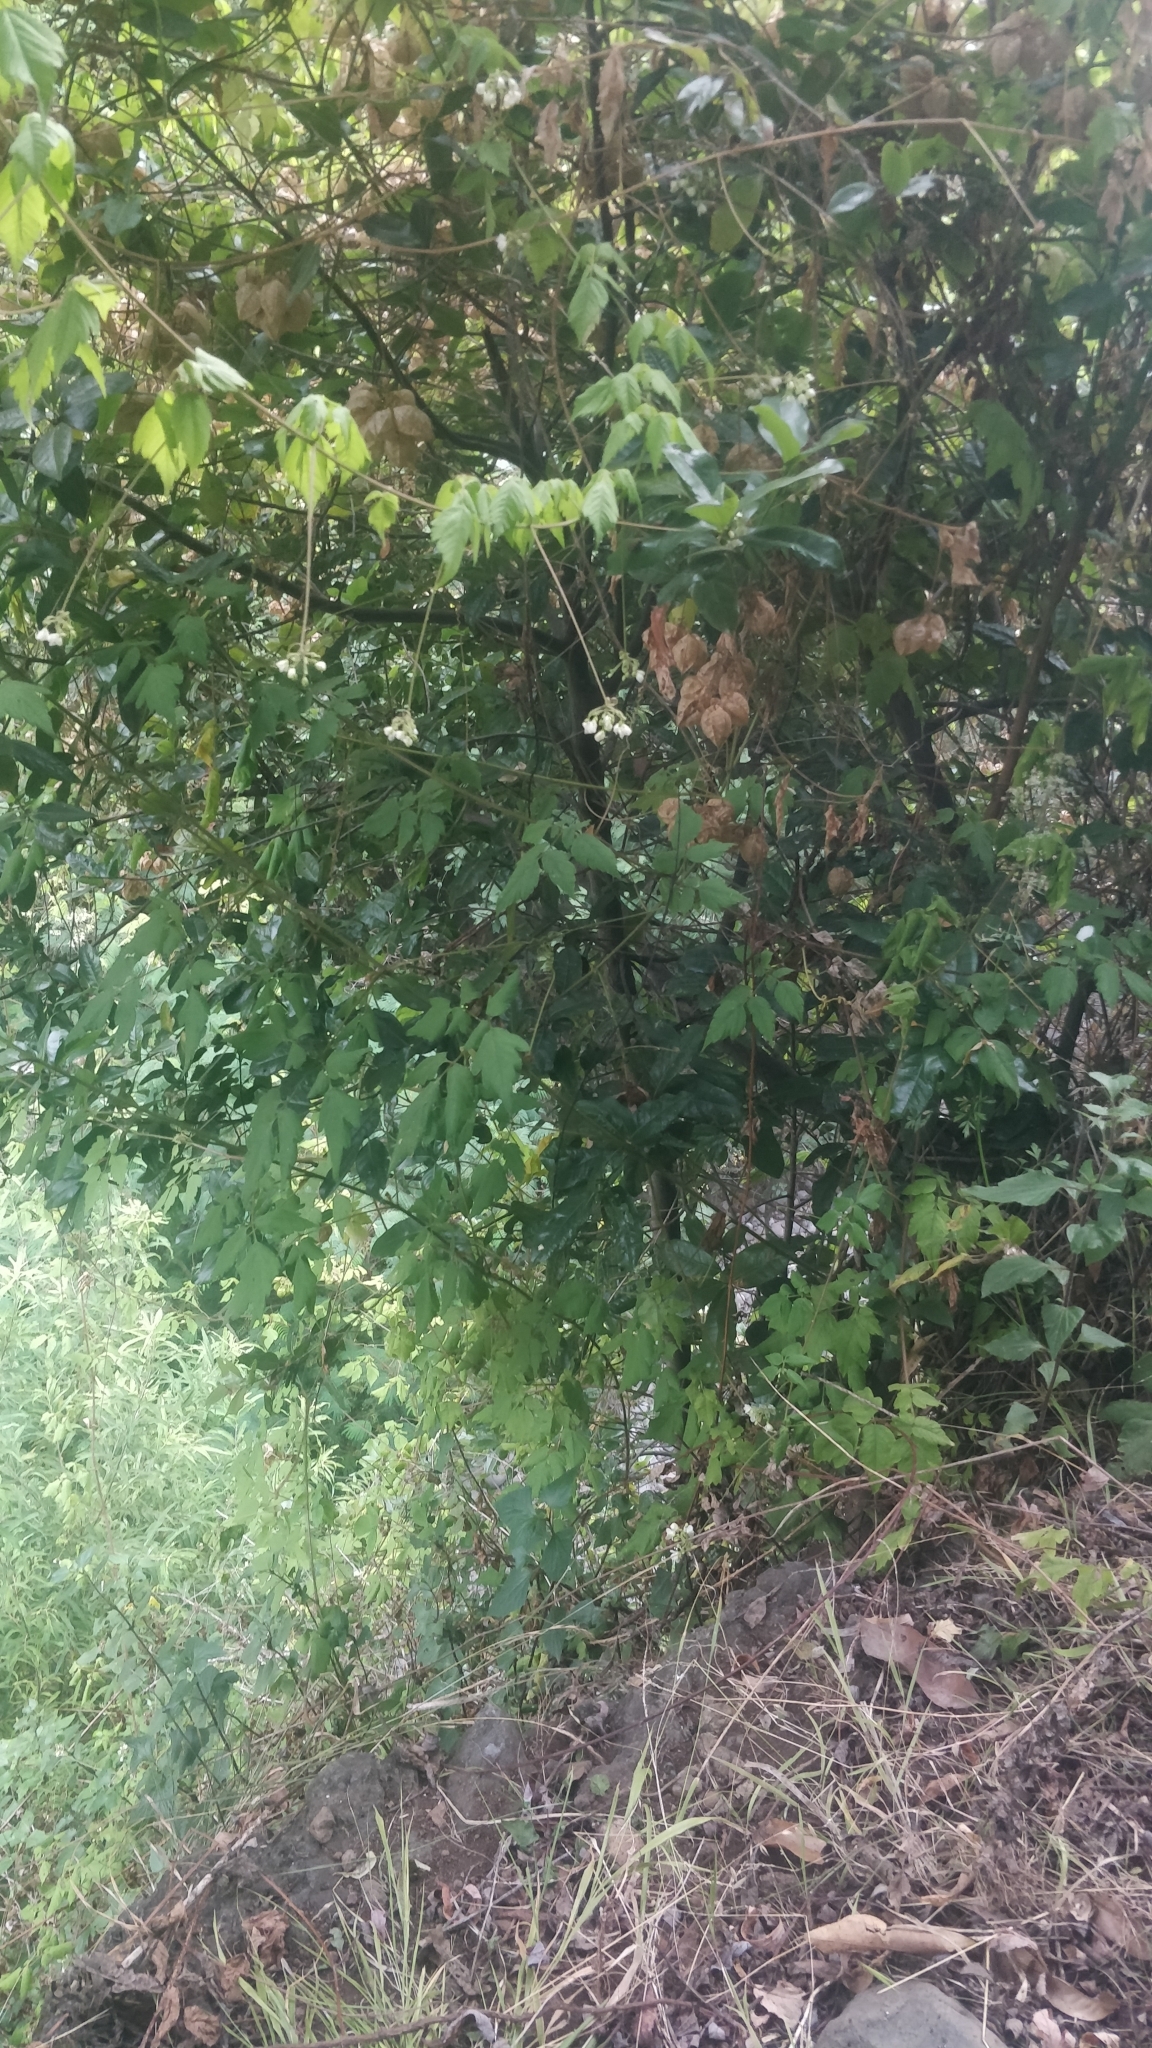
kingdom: Plantae
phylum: Tracheophyta
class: Magnoliopsida
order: Sapindales
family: Sapindaceae
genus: Cardiospermum
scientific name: Cardiospermum grandiflorum
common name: Balloon vine
